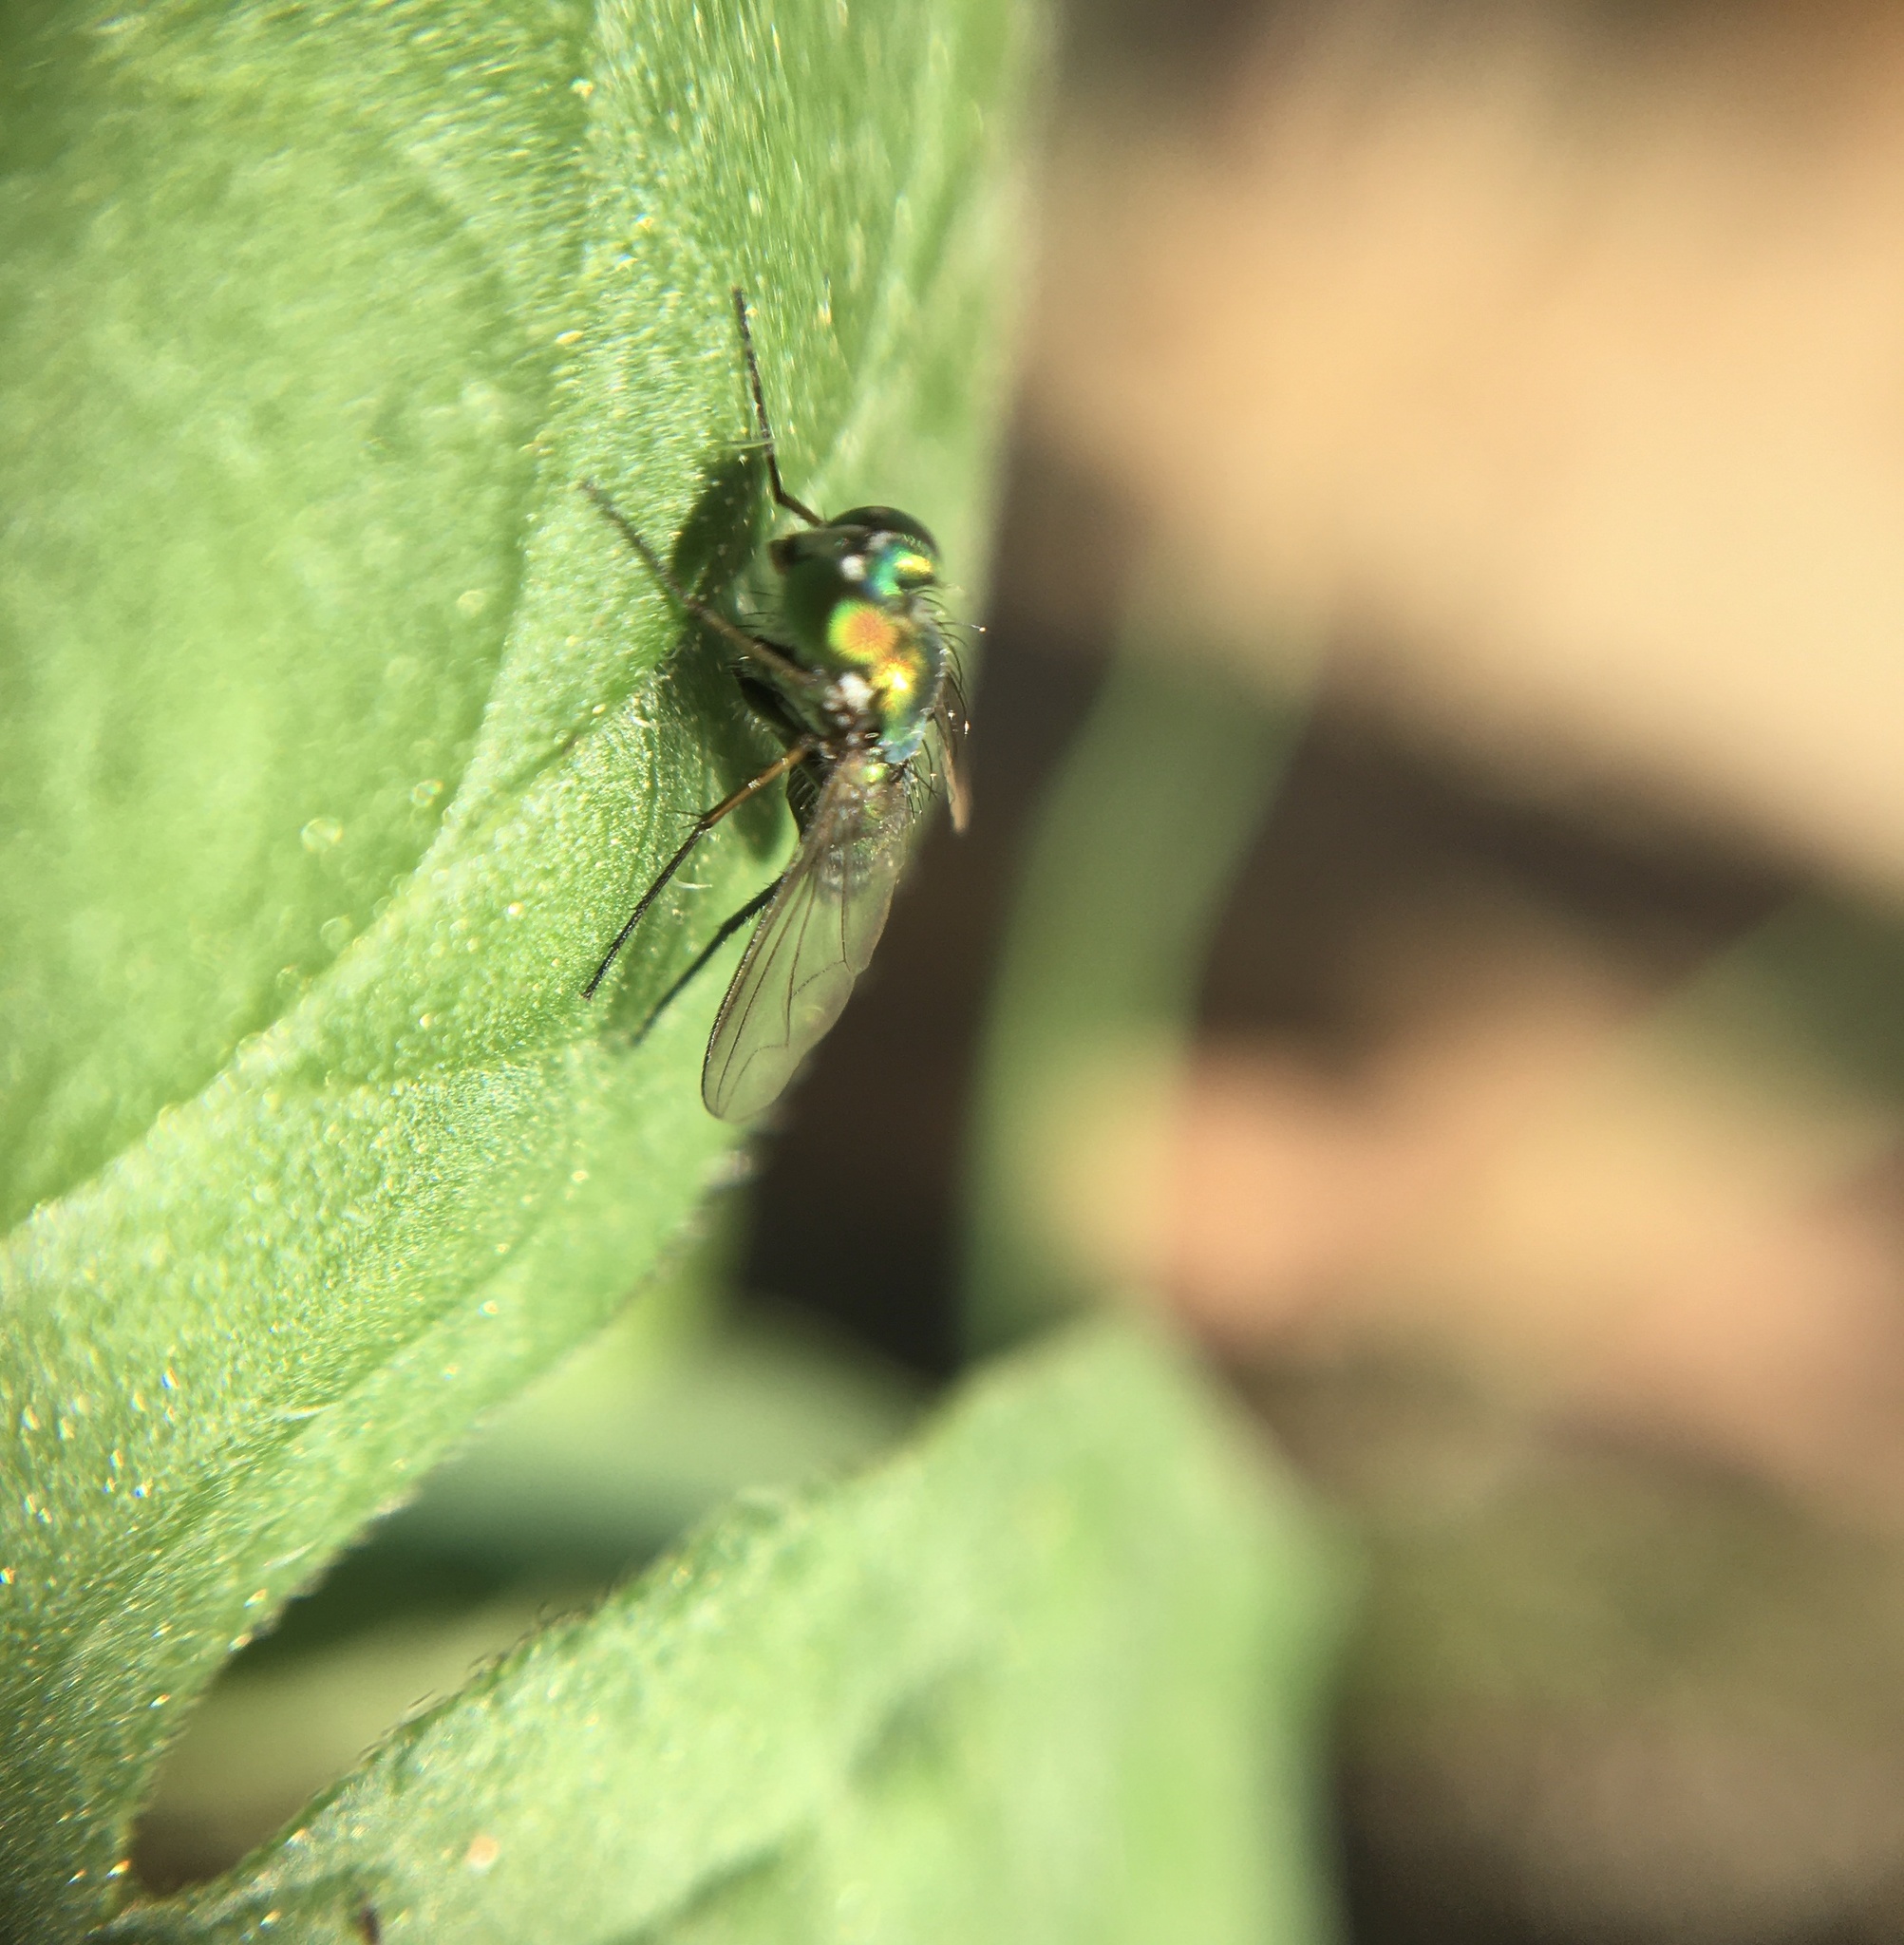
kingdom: Animalia
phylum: Arthropoda
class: Insecta
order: Diptera
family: Dolichopodidae
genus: Condylostylus
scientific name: Condylostylus longicornis
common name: Long-legged fly
